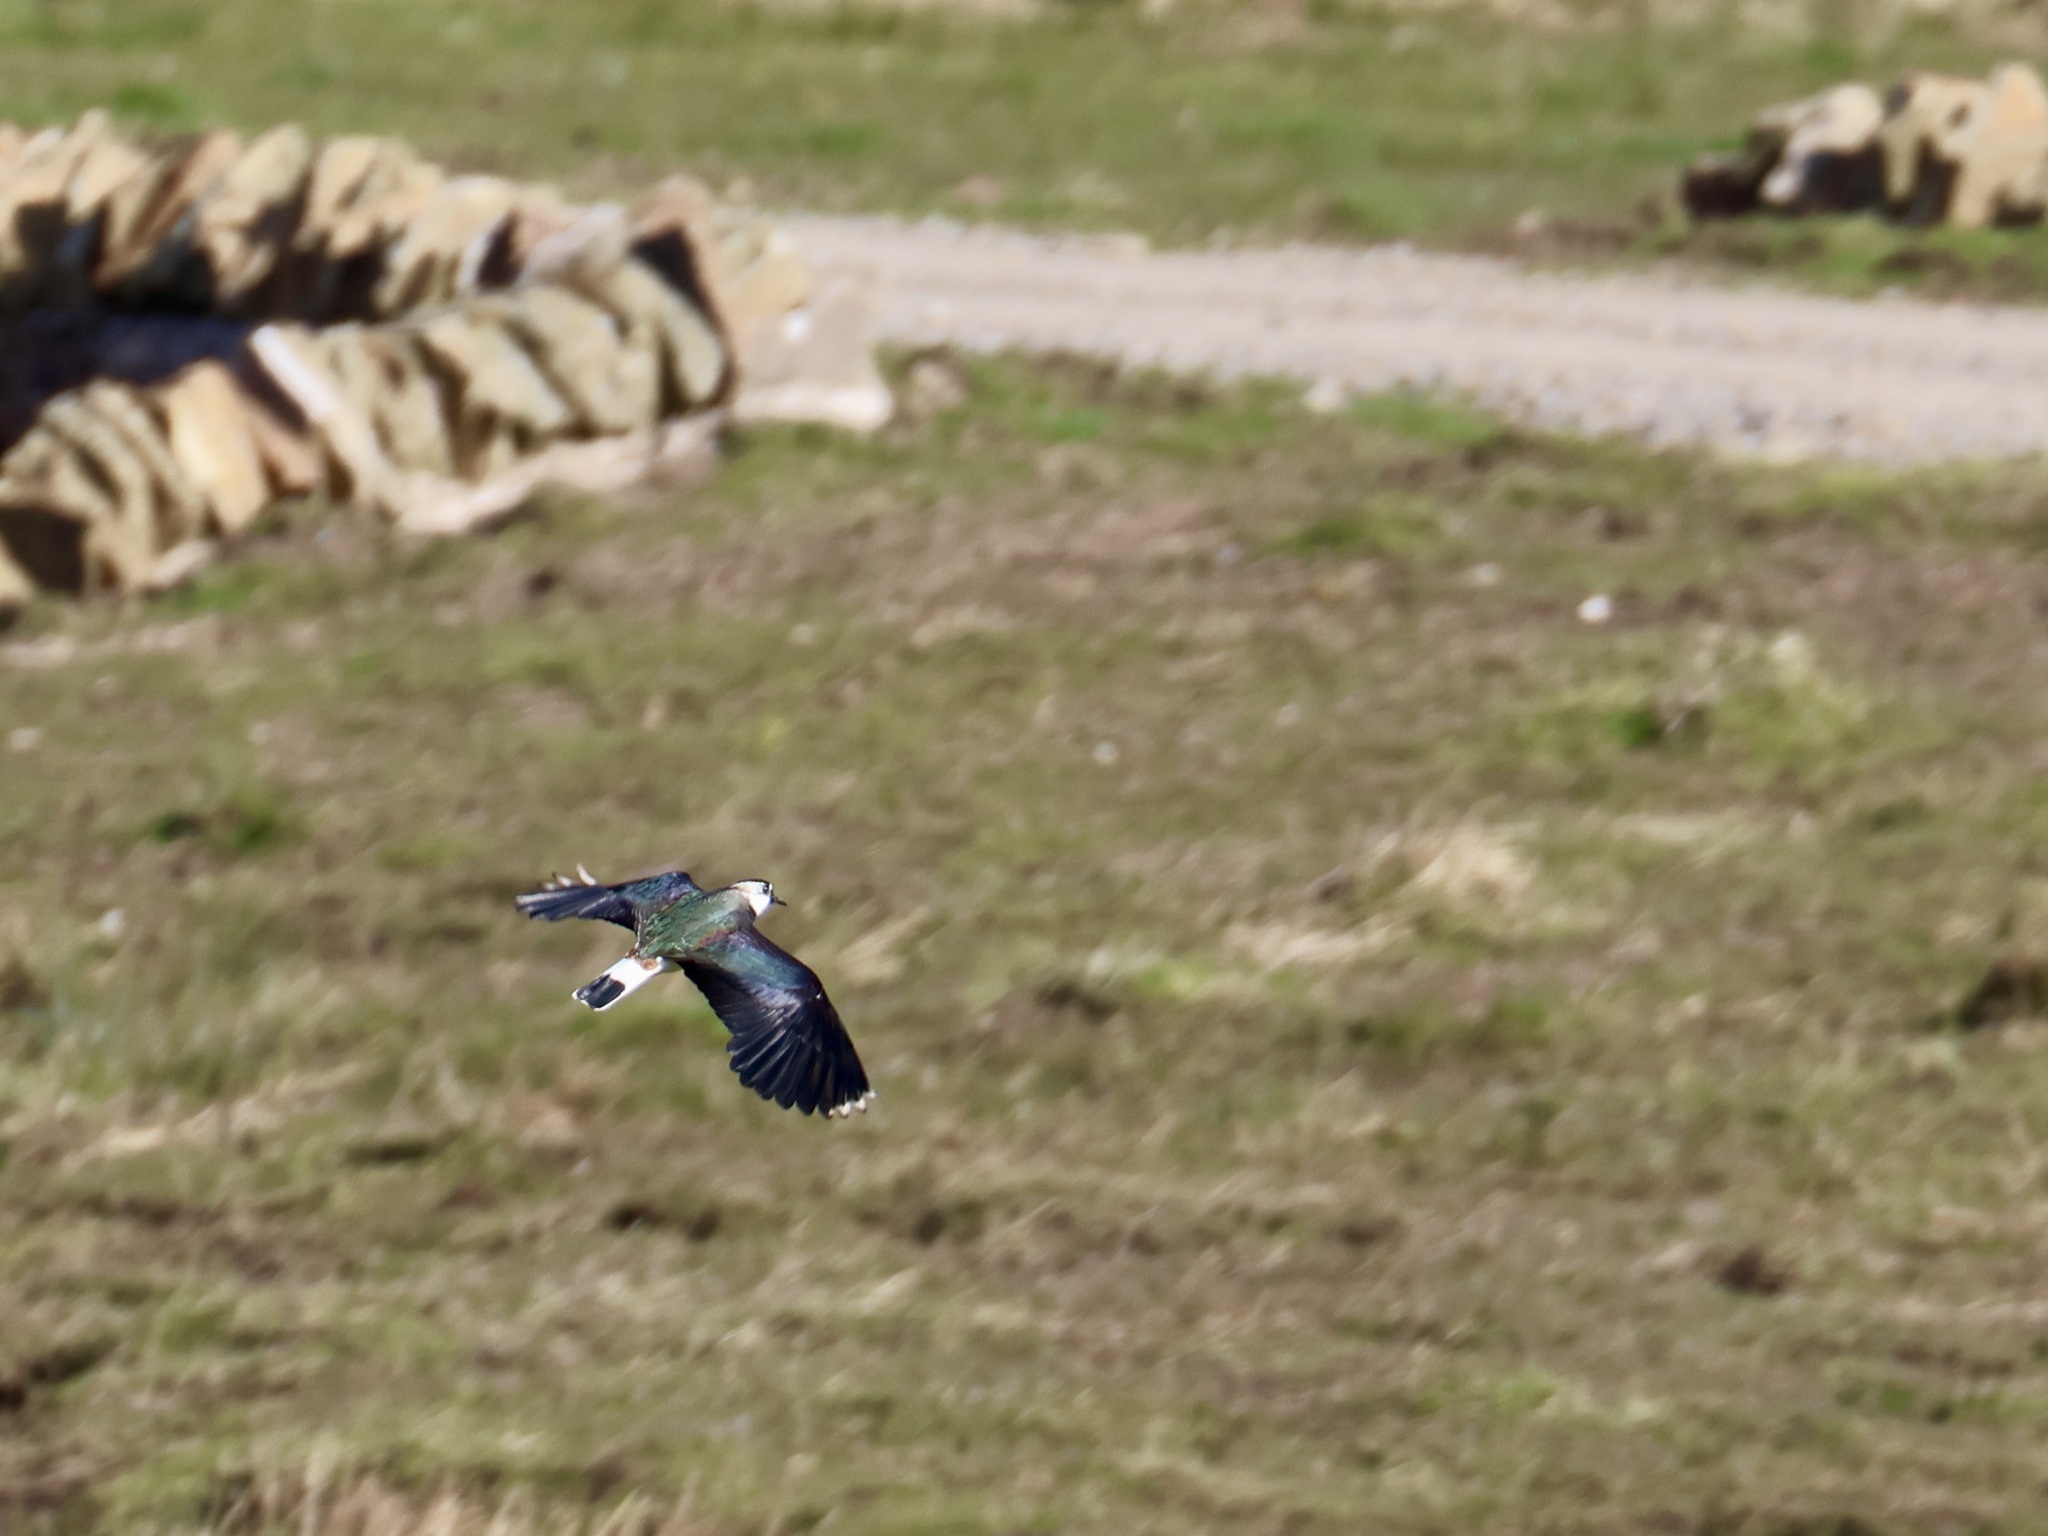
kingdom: Animalia
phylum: Chordata
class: Aves
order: Charadriiformes
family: Charadriidae
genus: Vanellus
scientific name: Vanellus vanellus
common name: Northern lapwing
